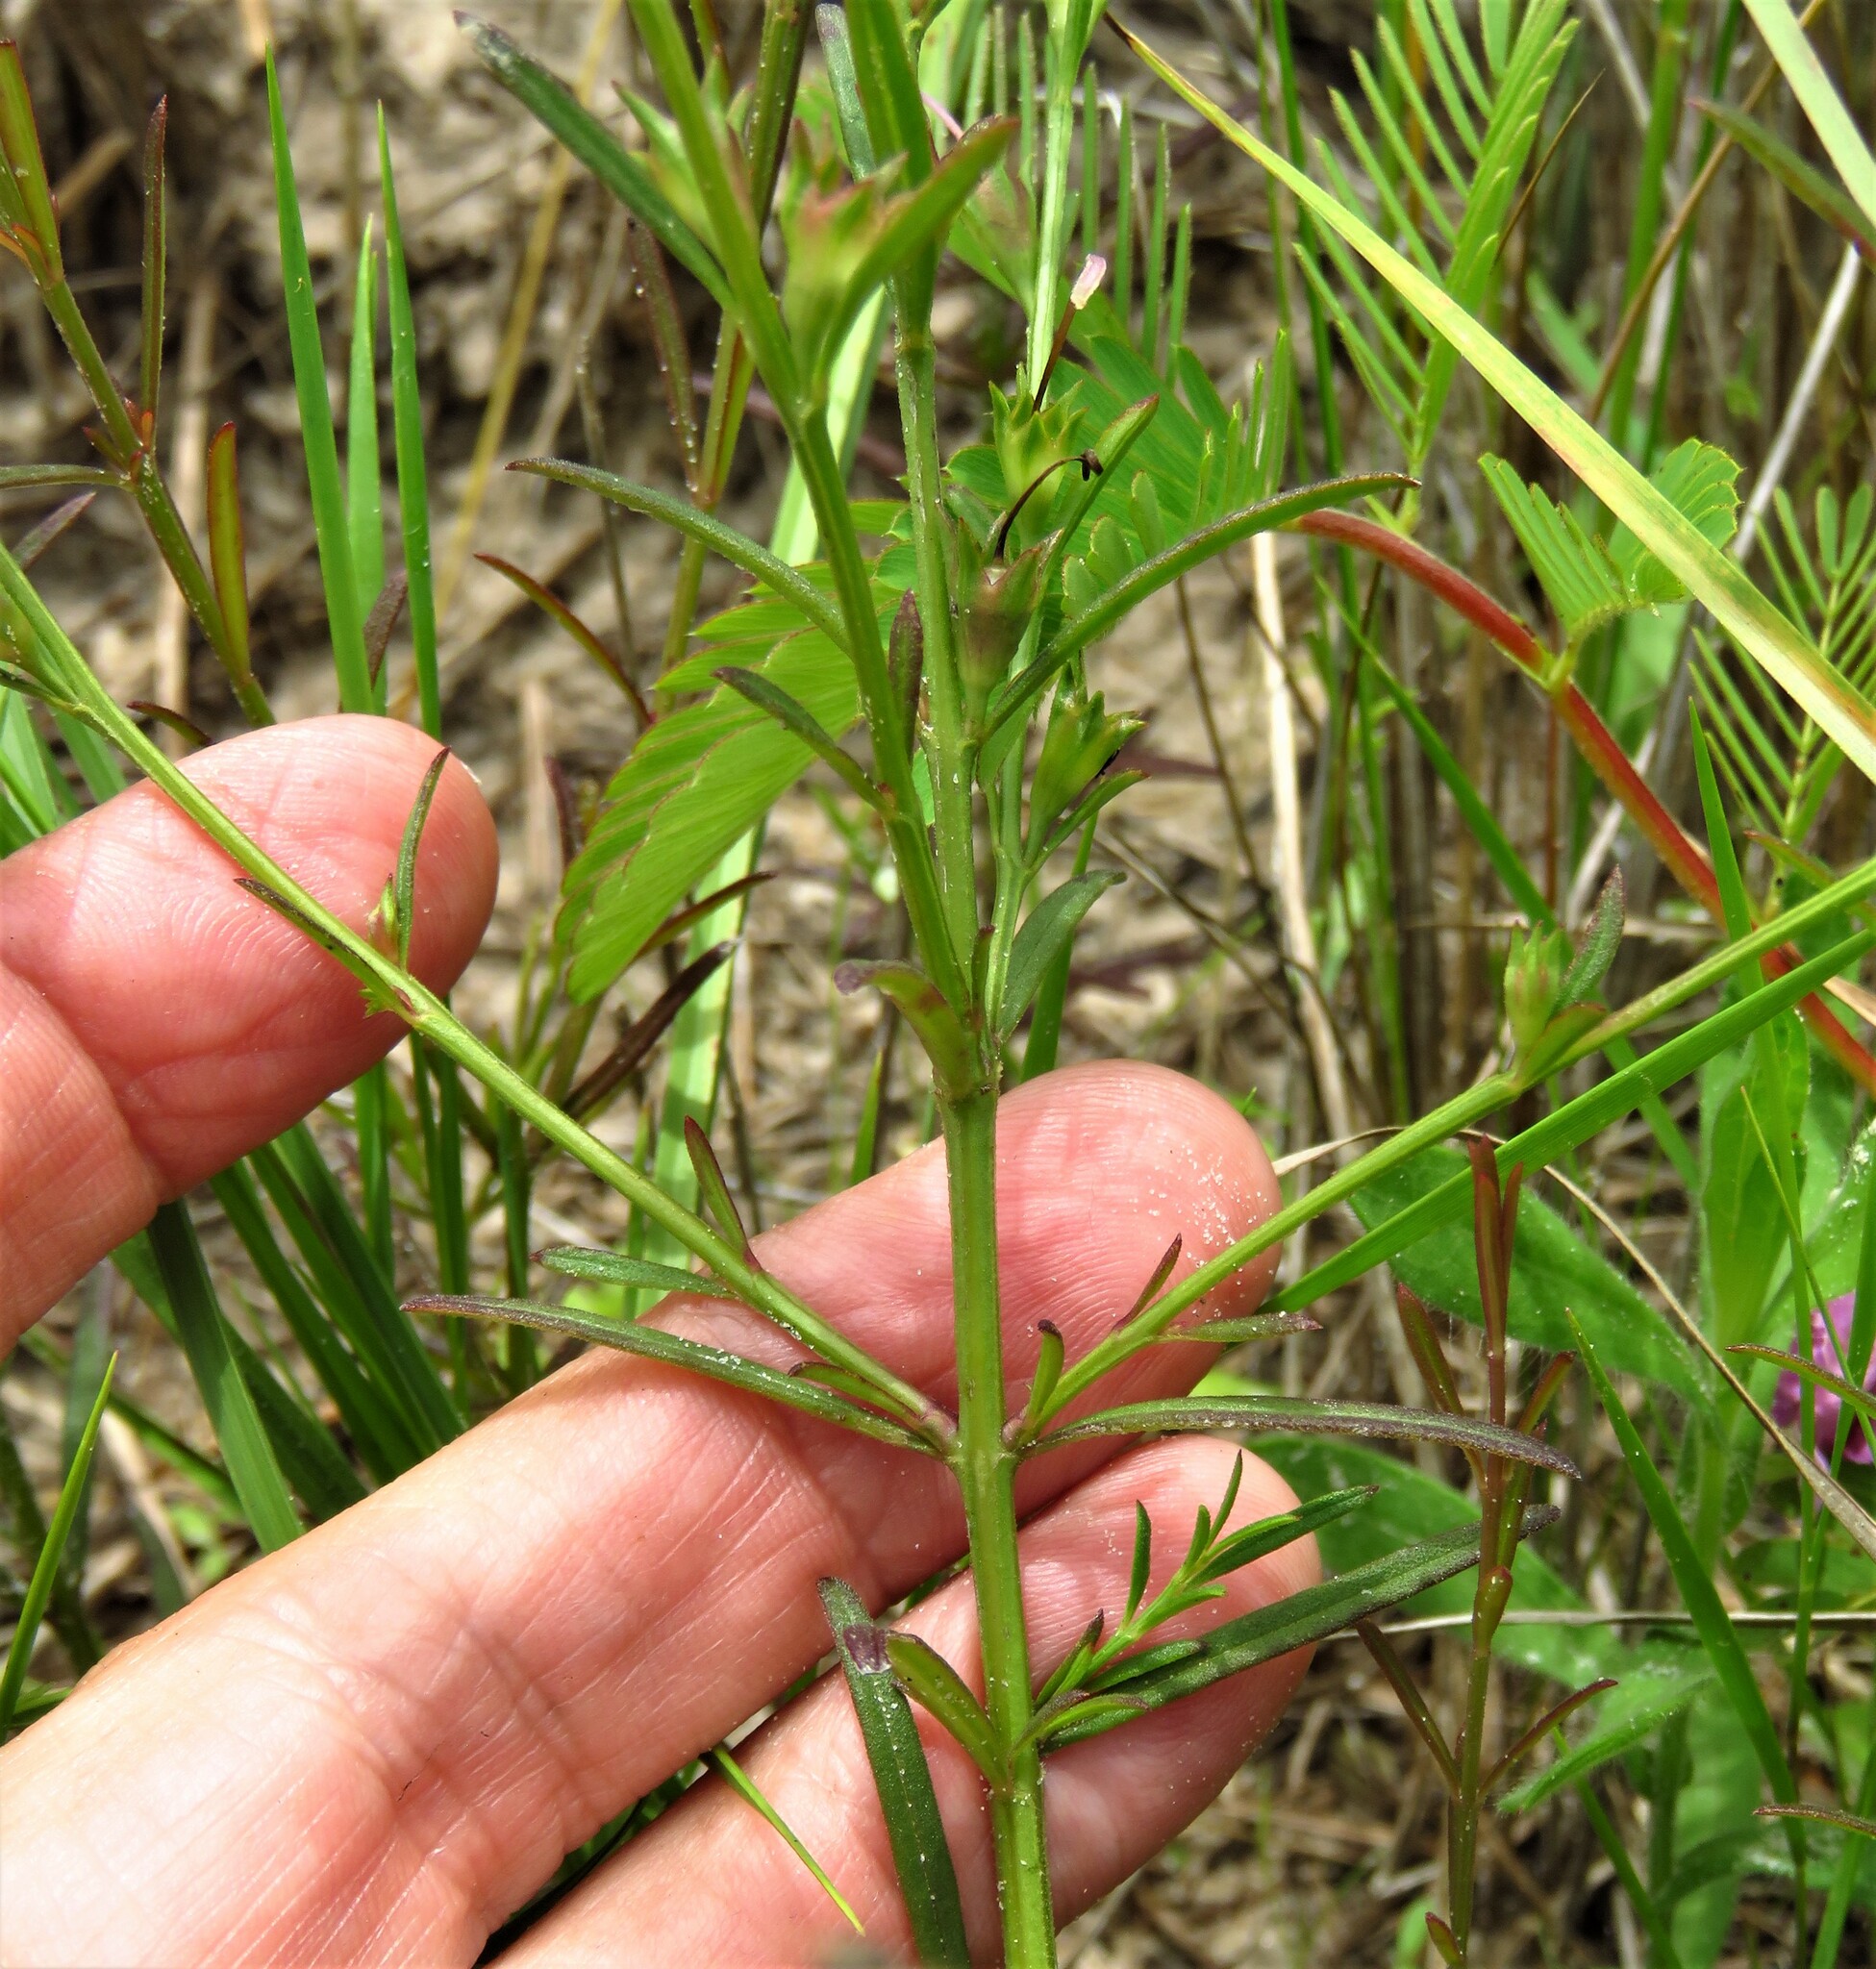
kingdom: Plantae
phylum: Tracheophyta
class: Magnoliopsida
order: Lamiales
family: Orobanchaceae
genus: Agalinis
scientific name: Agalinis heterophylla
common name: Prairie agalinis
